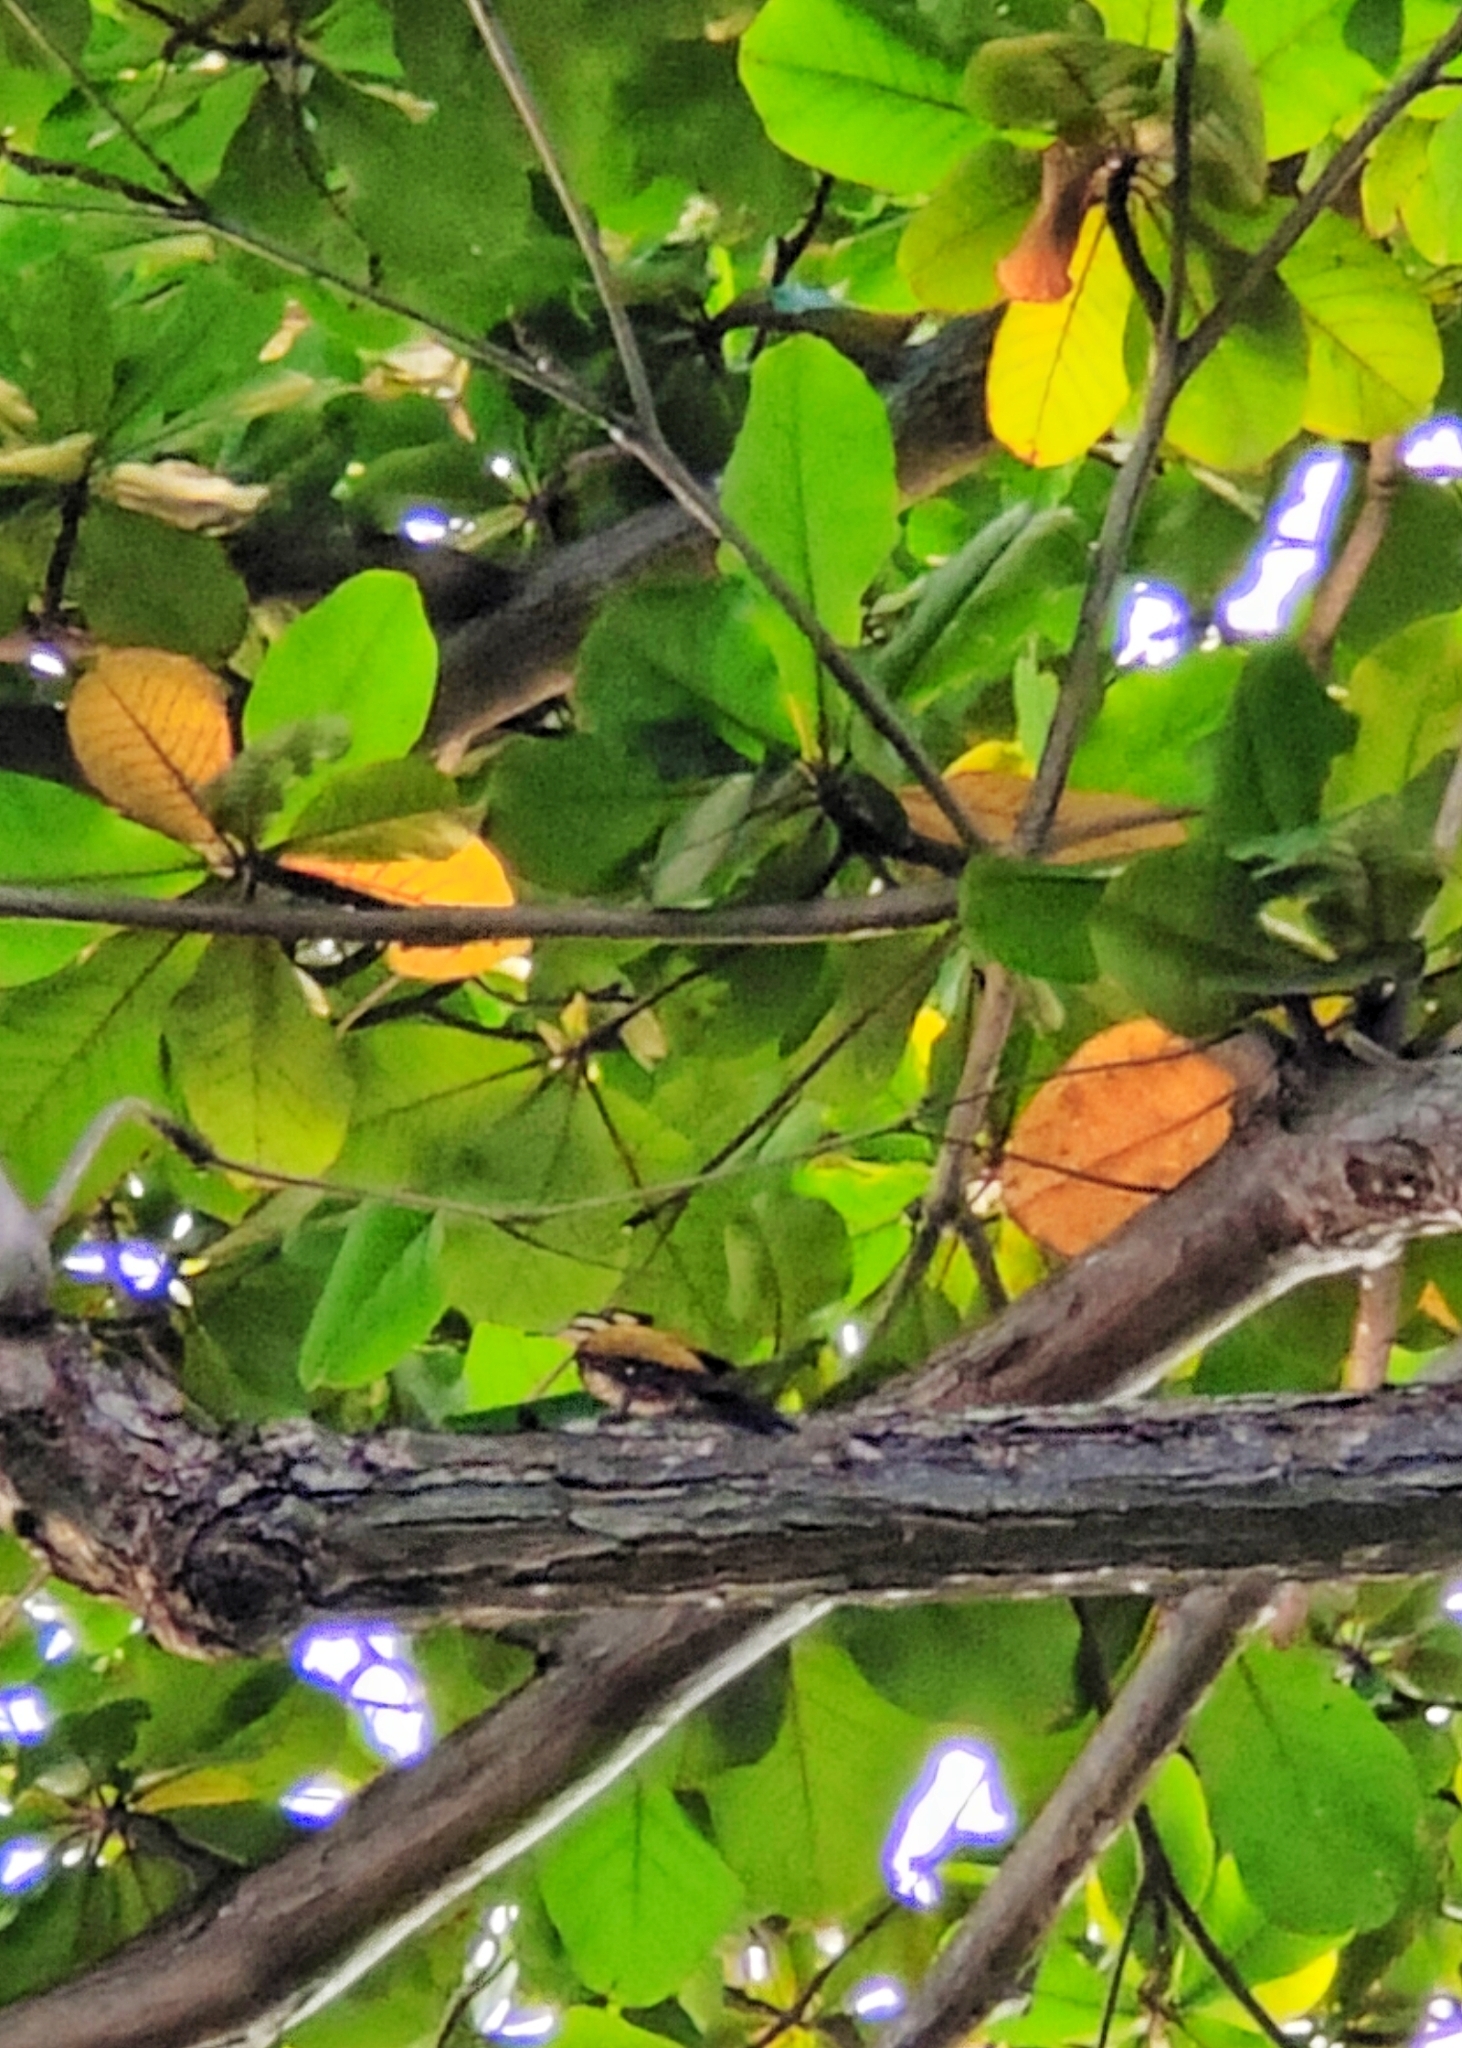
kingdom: Animalia
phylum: Chordata
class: Aves
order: Piciformes
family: Picidae
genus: Dinopium
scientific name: Dinopium javanense
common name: Common flameback
